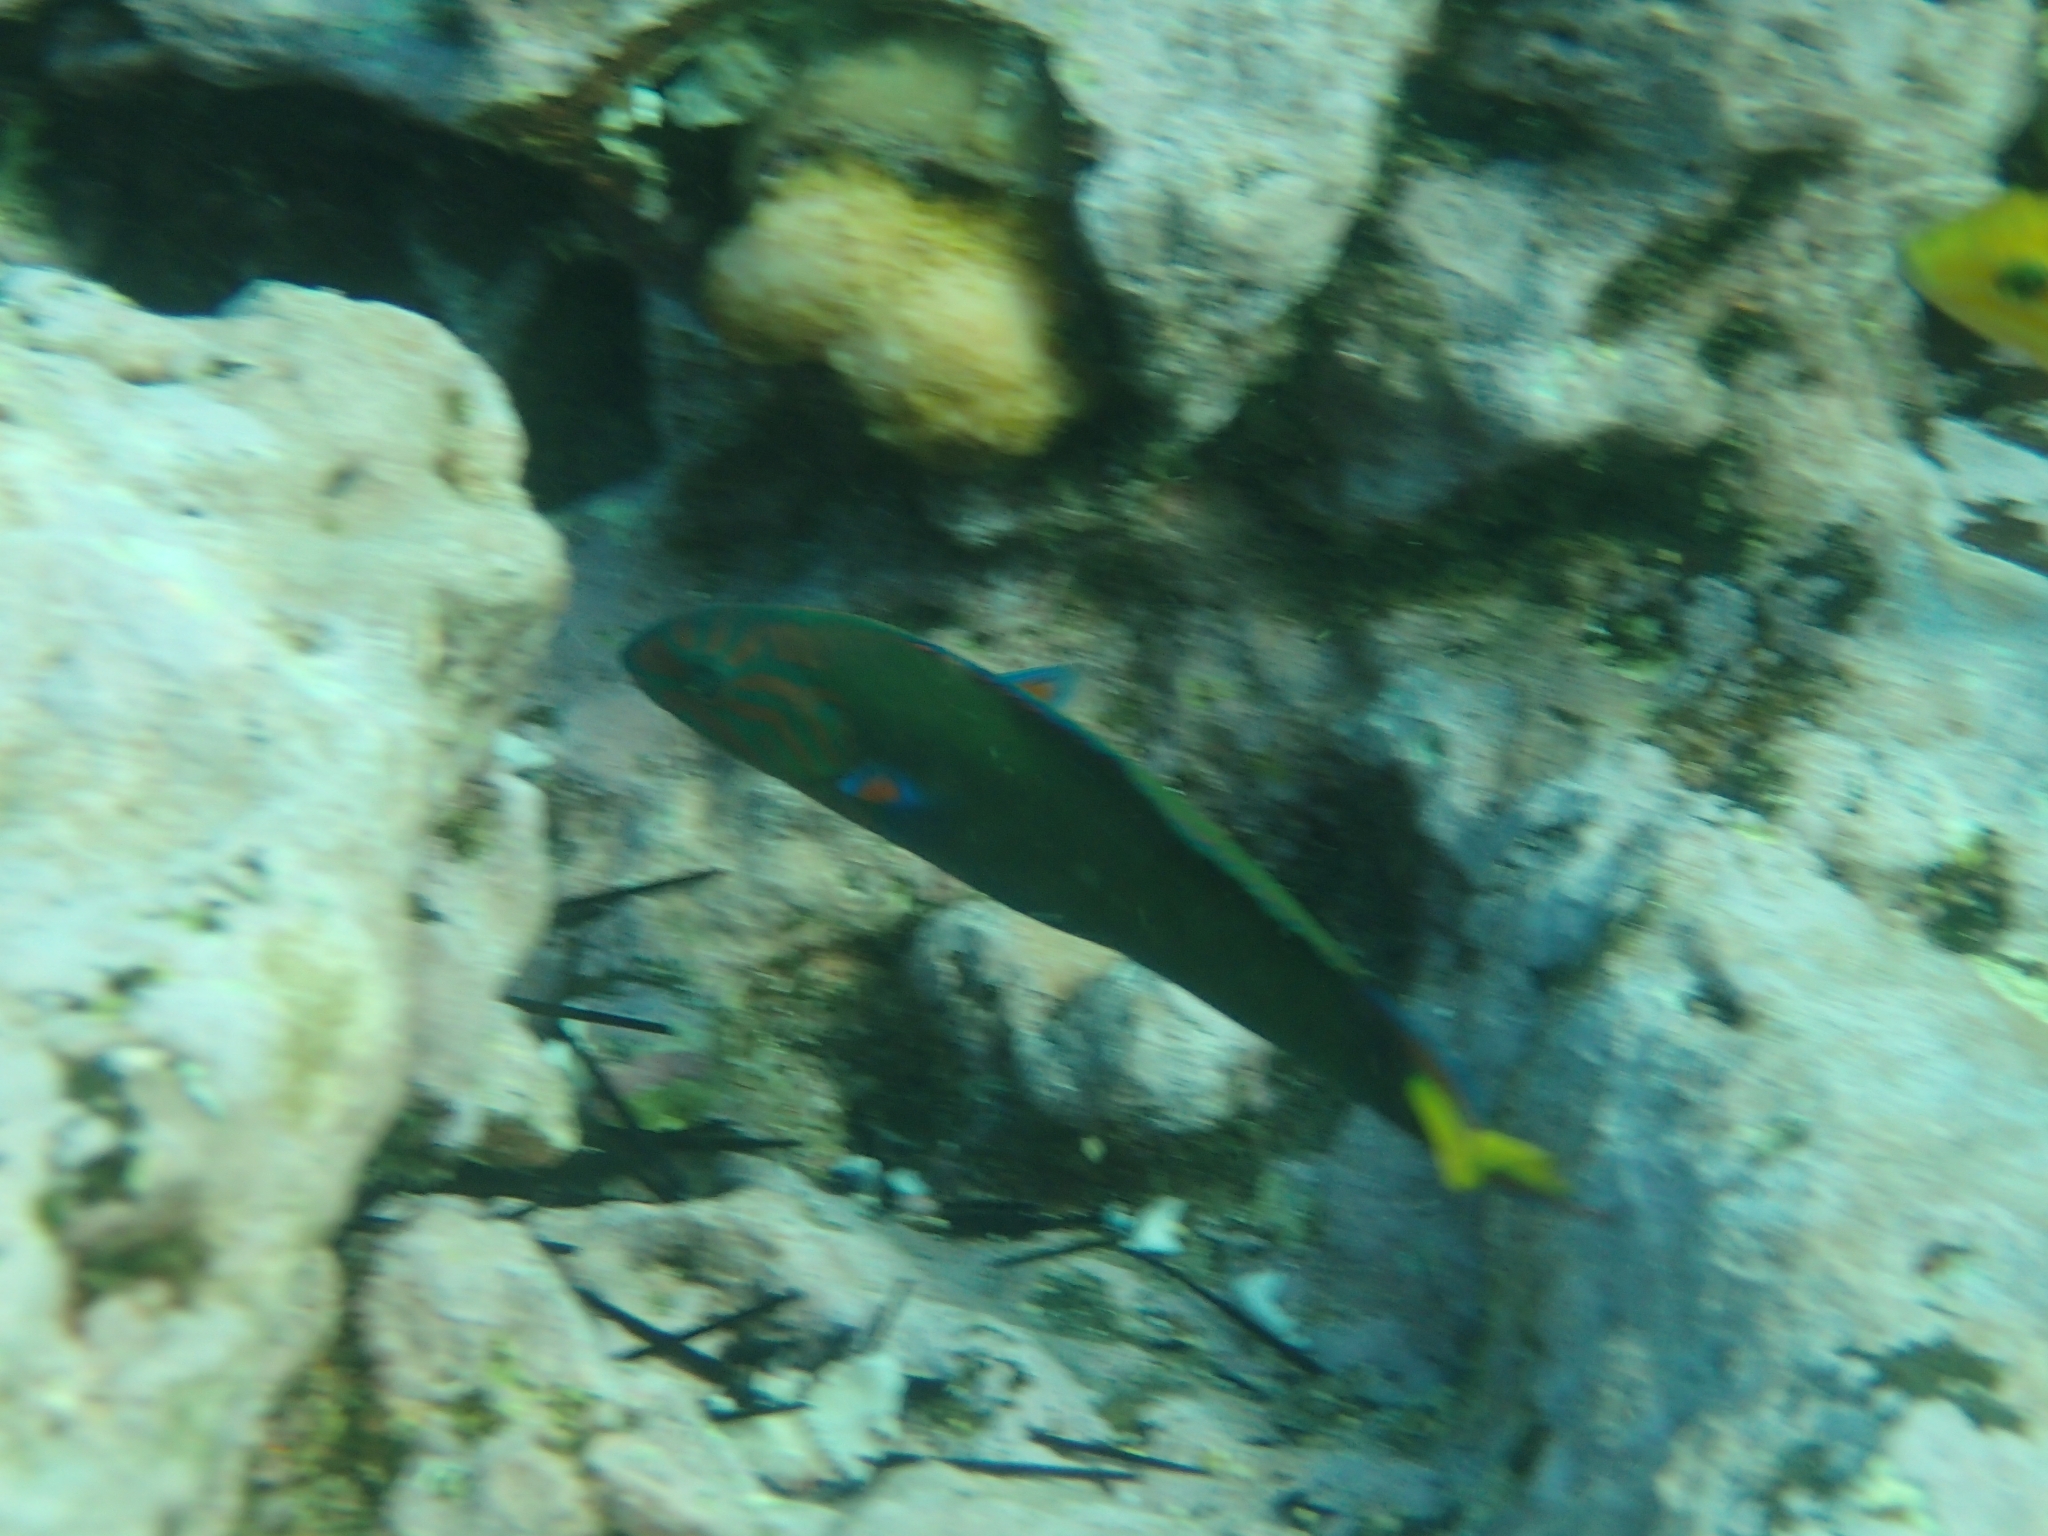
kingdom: Animalia
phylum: Chordata
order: Perciformes
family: Labridae
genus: Thalassoma
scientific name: Thalassoma lunare
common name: Blue wrasse
